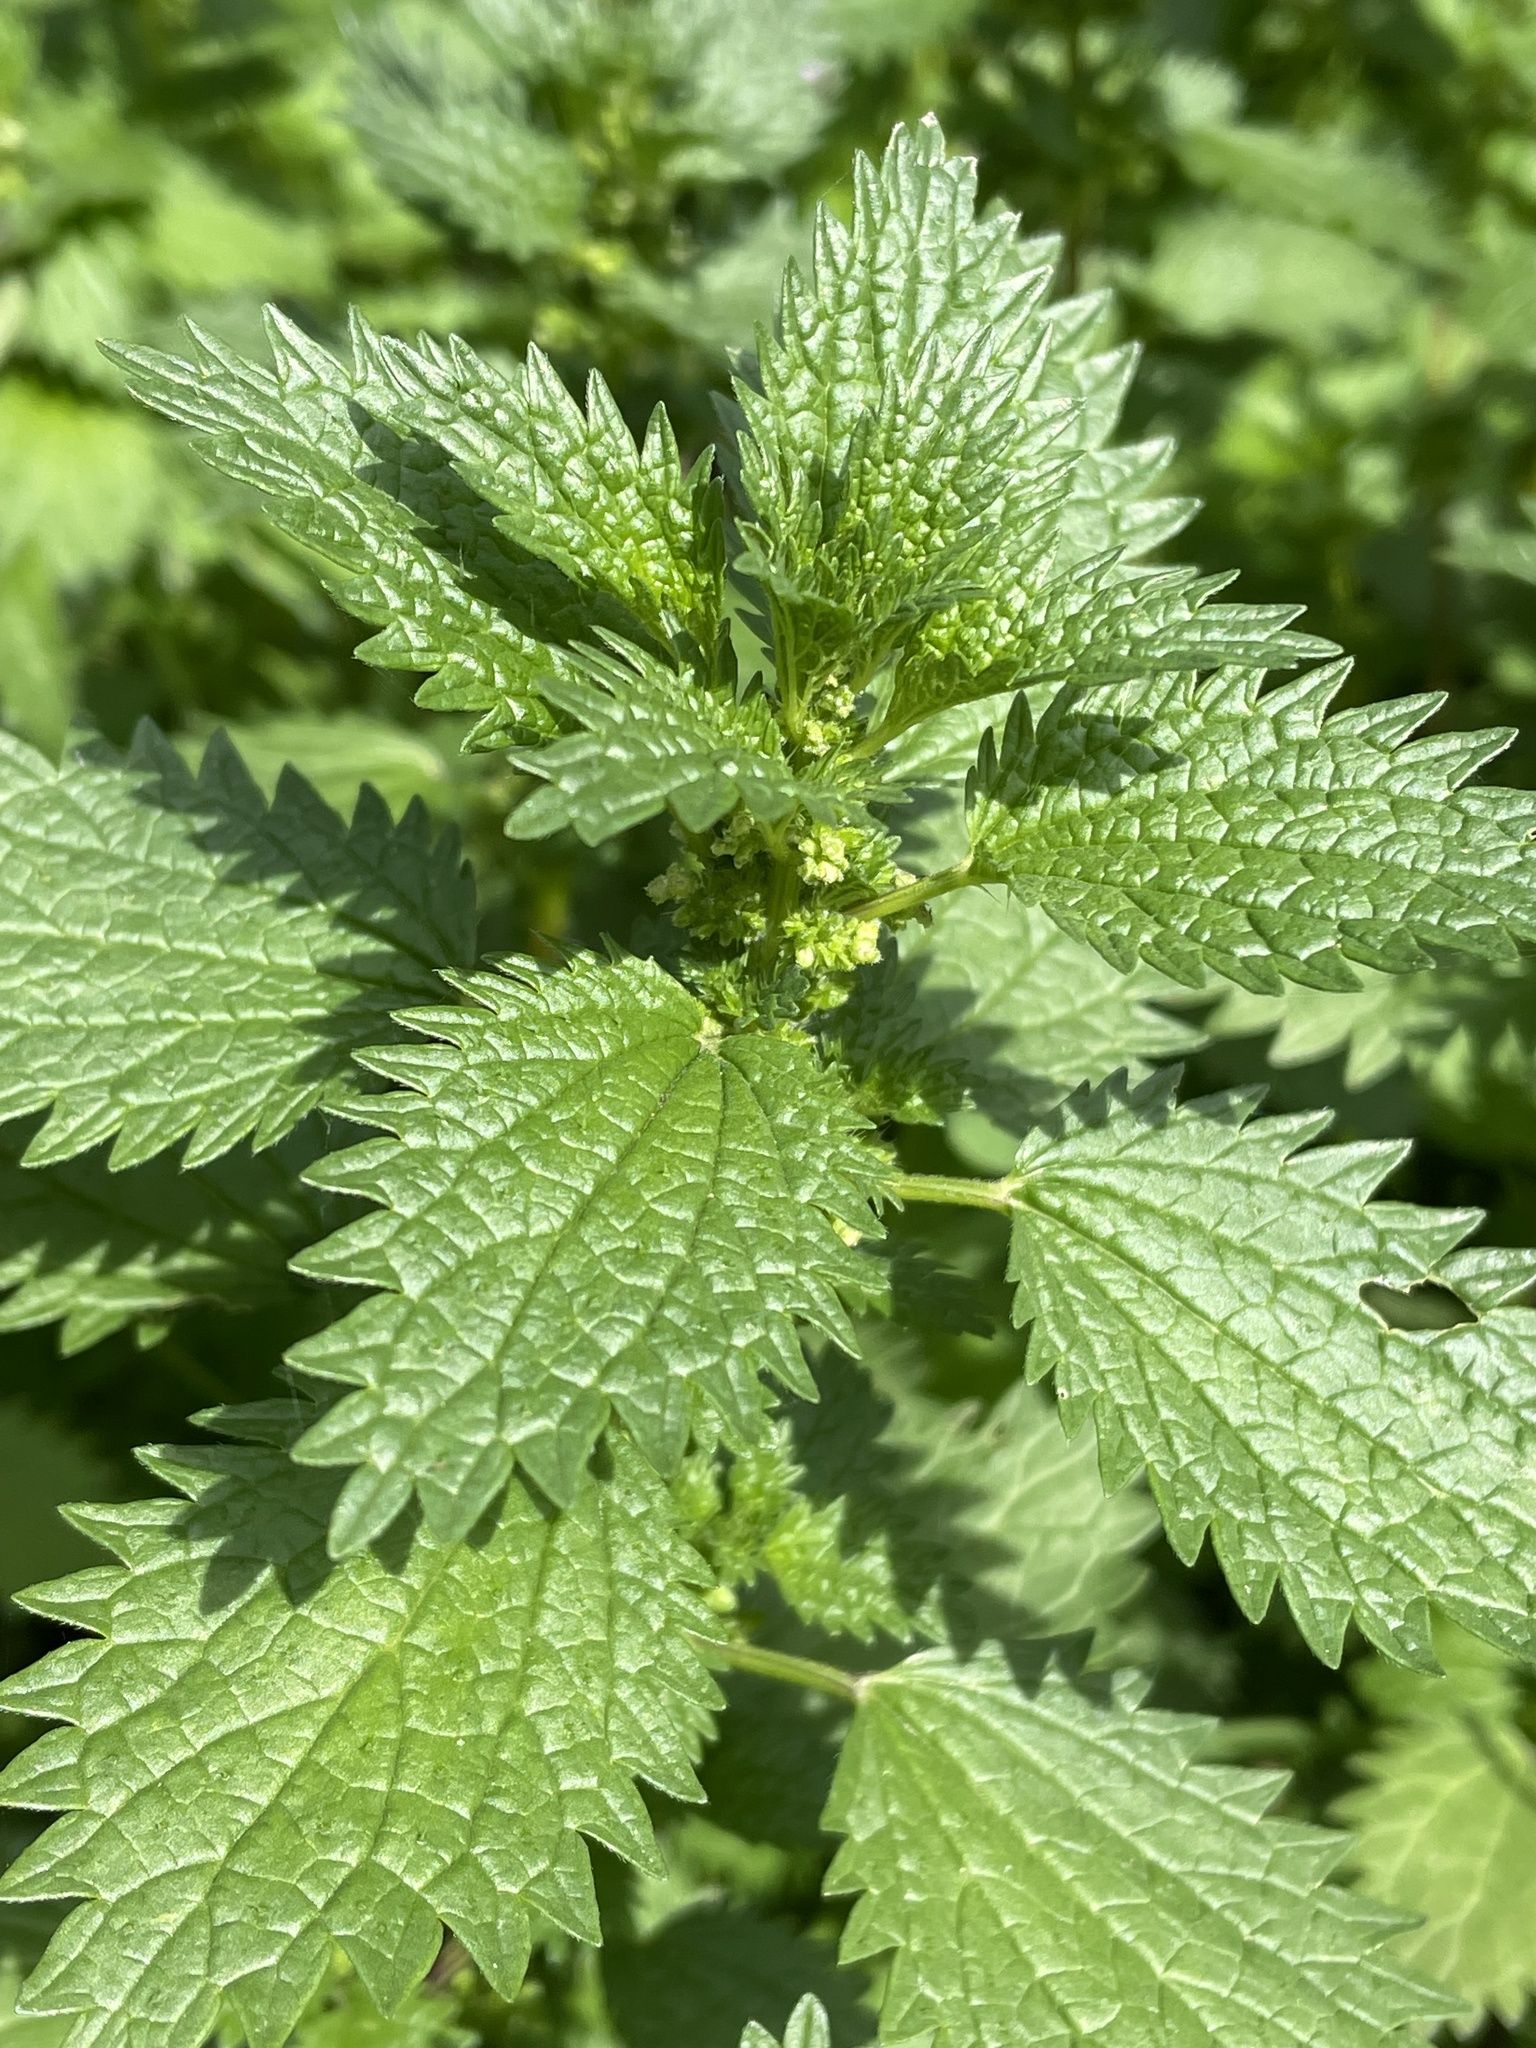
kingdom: Plantae
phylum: Tracheophyta
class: Magnoliopsida
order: Rosales
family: Urticaceae
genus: Urtica
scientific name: Urtica urens
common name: Dwarf nettle
